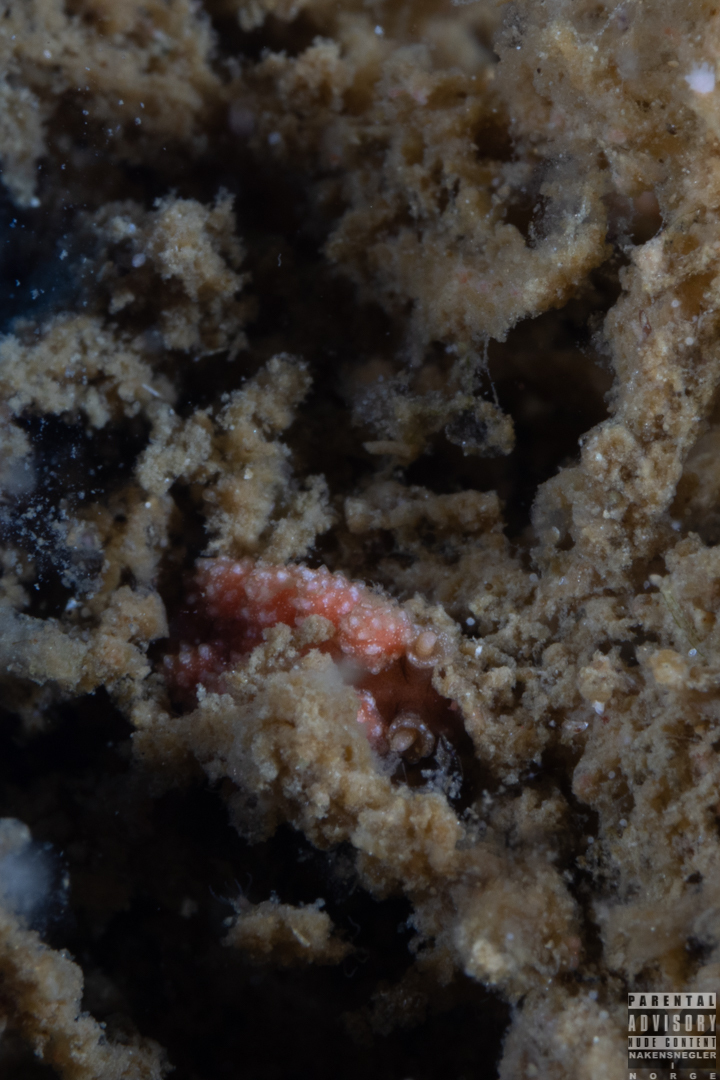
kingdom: Animalia
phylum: Mollusca
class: Gastropoda
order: Nudibranchia
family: Dotidae
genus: Doto
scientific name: Doto fragilis
